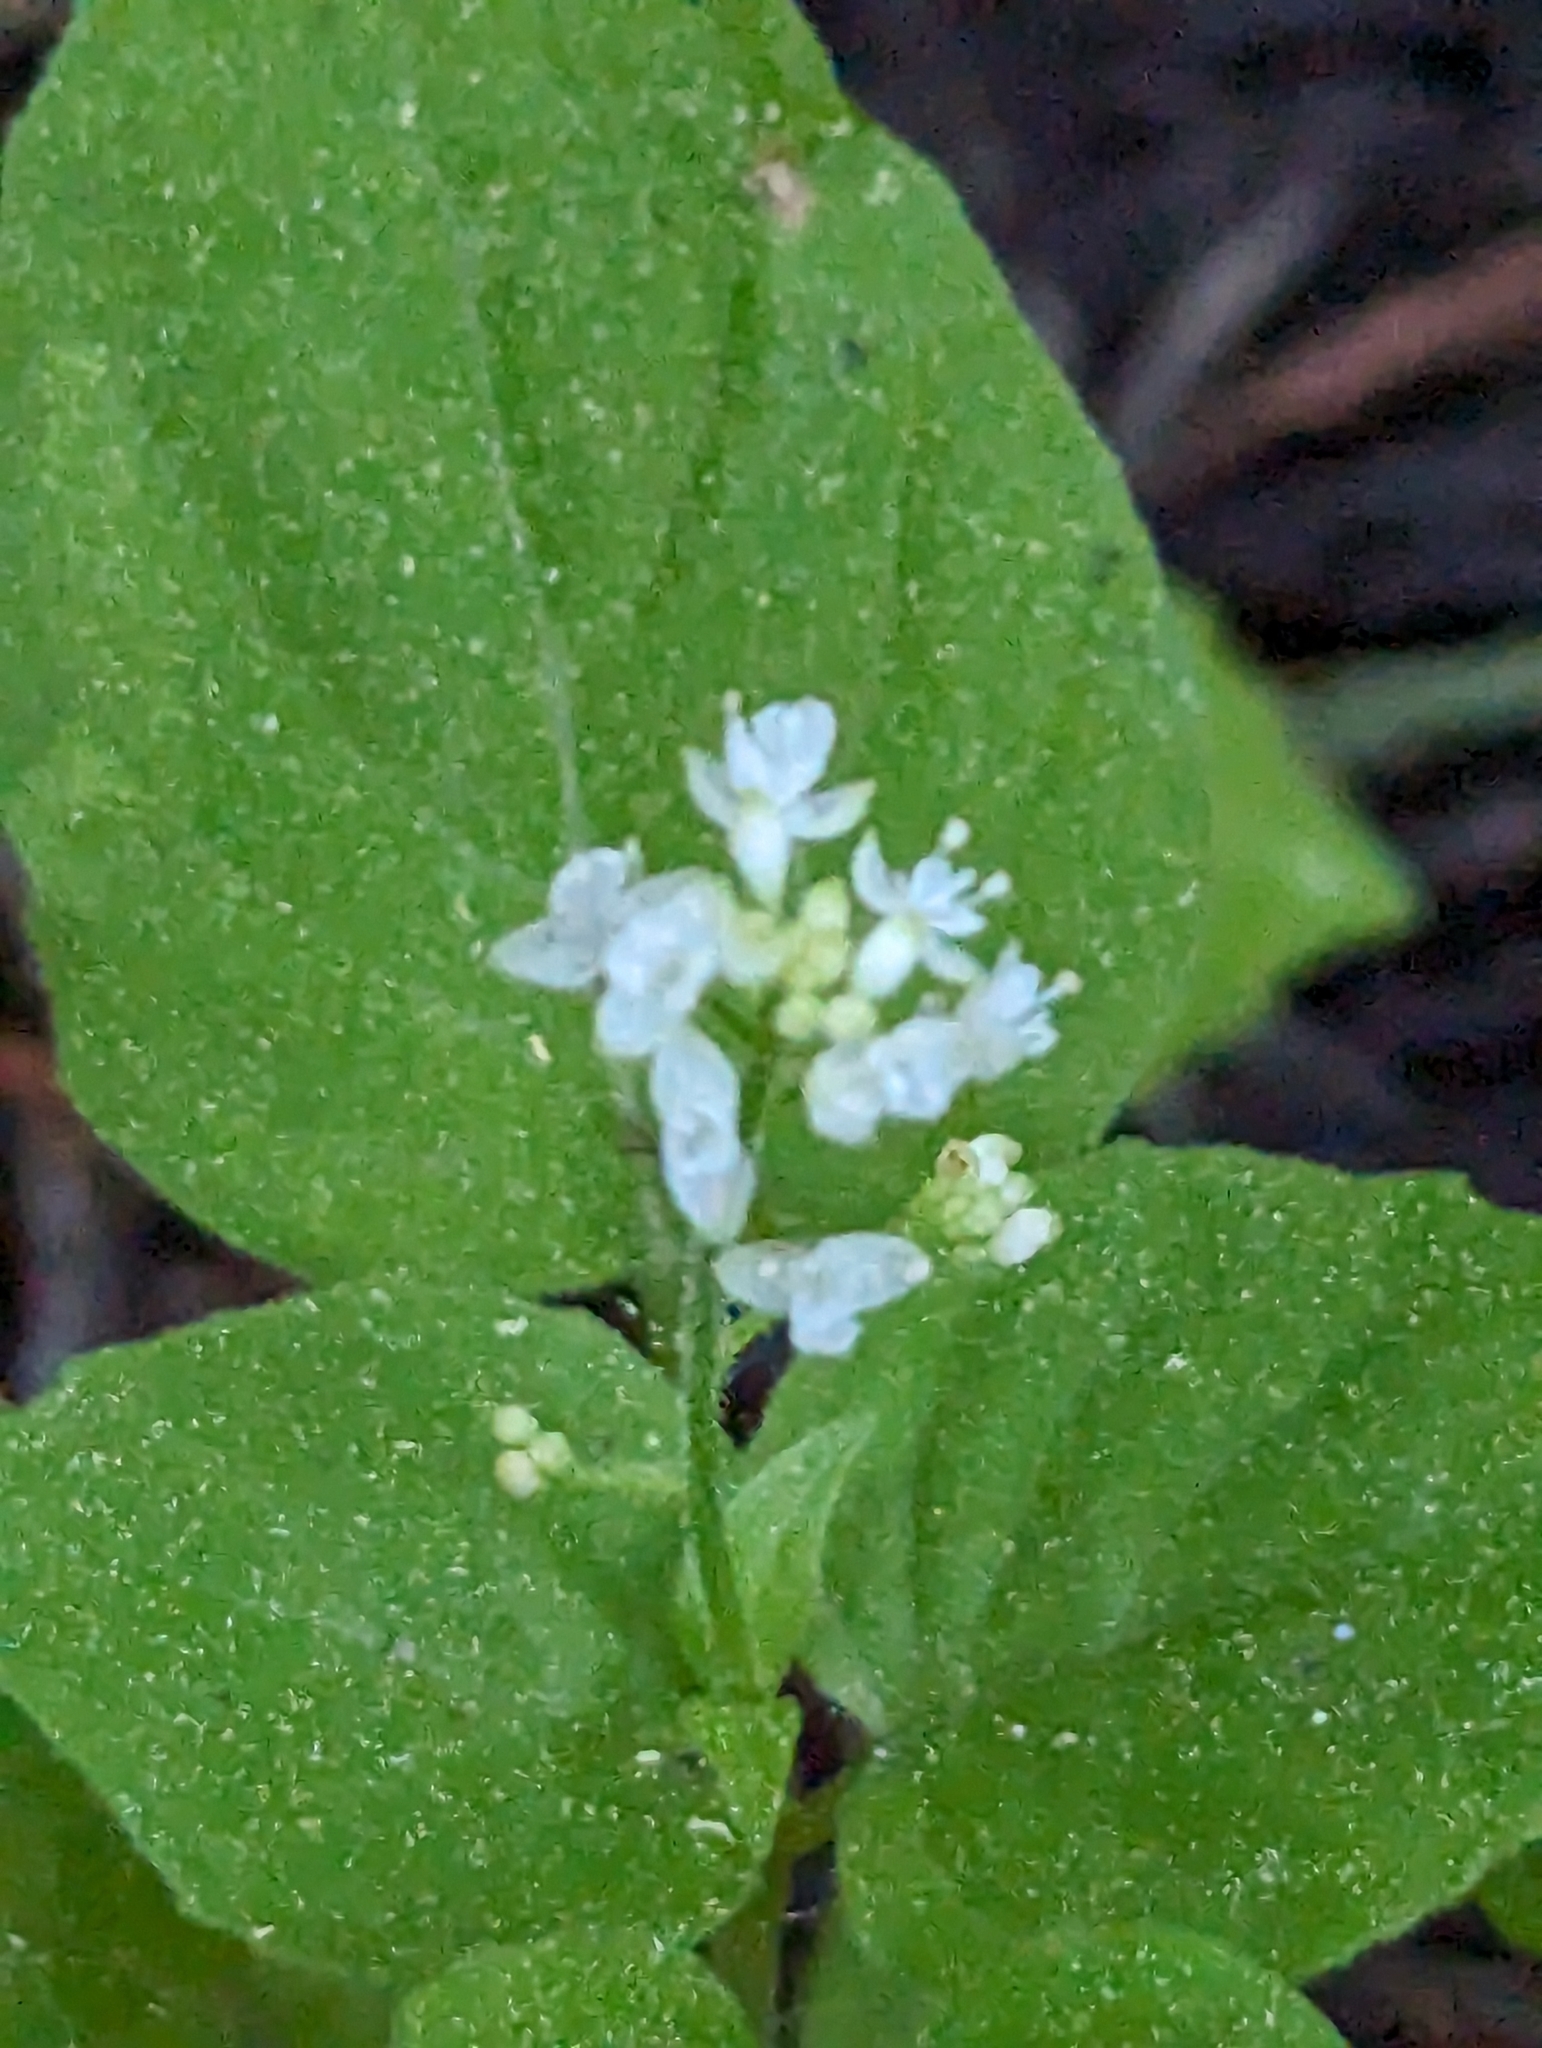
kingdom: Plantae
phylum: Tracheophyta
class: Magnoliopsida
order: Myrtales
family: Onagraceae
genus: Circaea
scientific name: Circaea alpina
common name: Alpine enchanter's-nightshade
